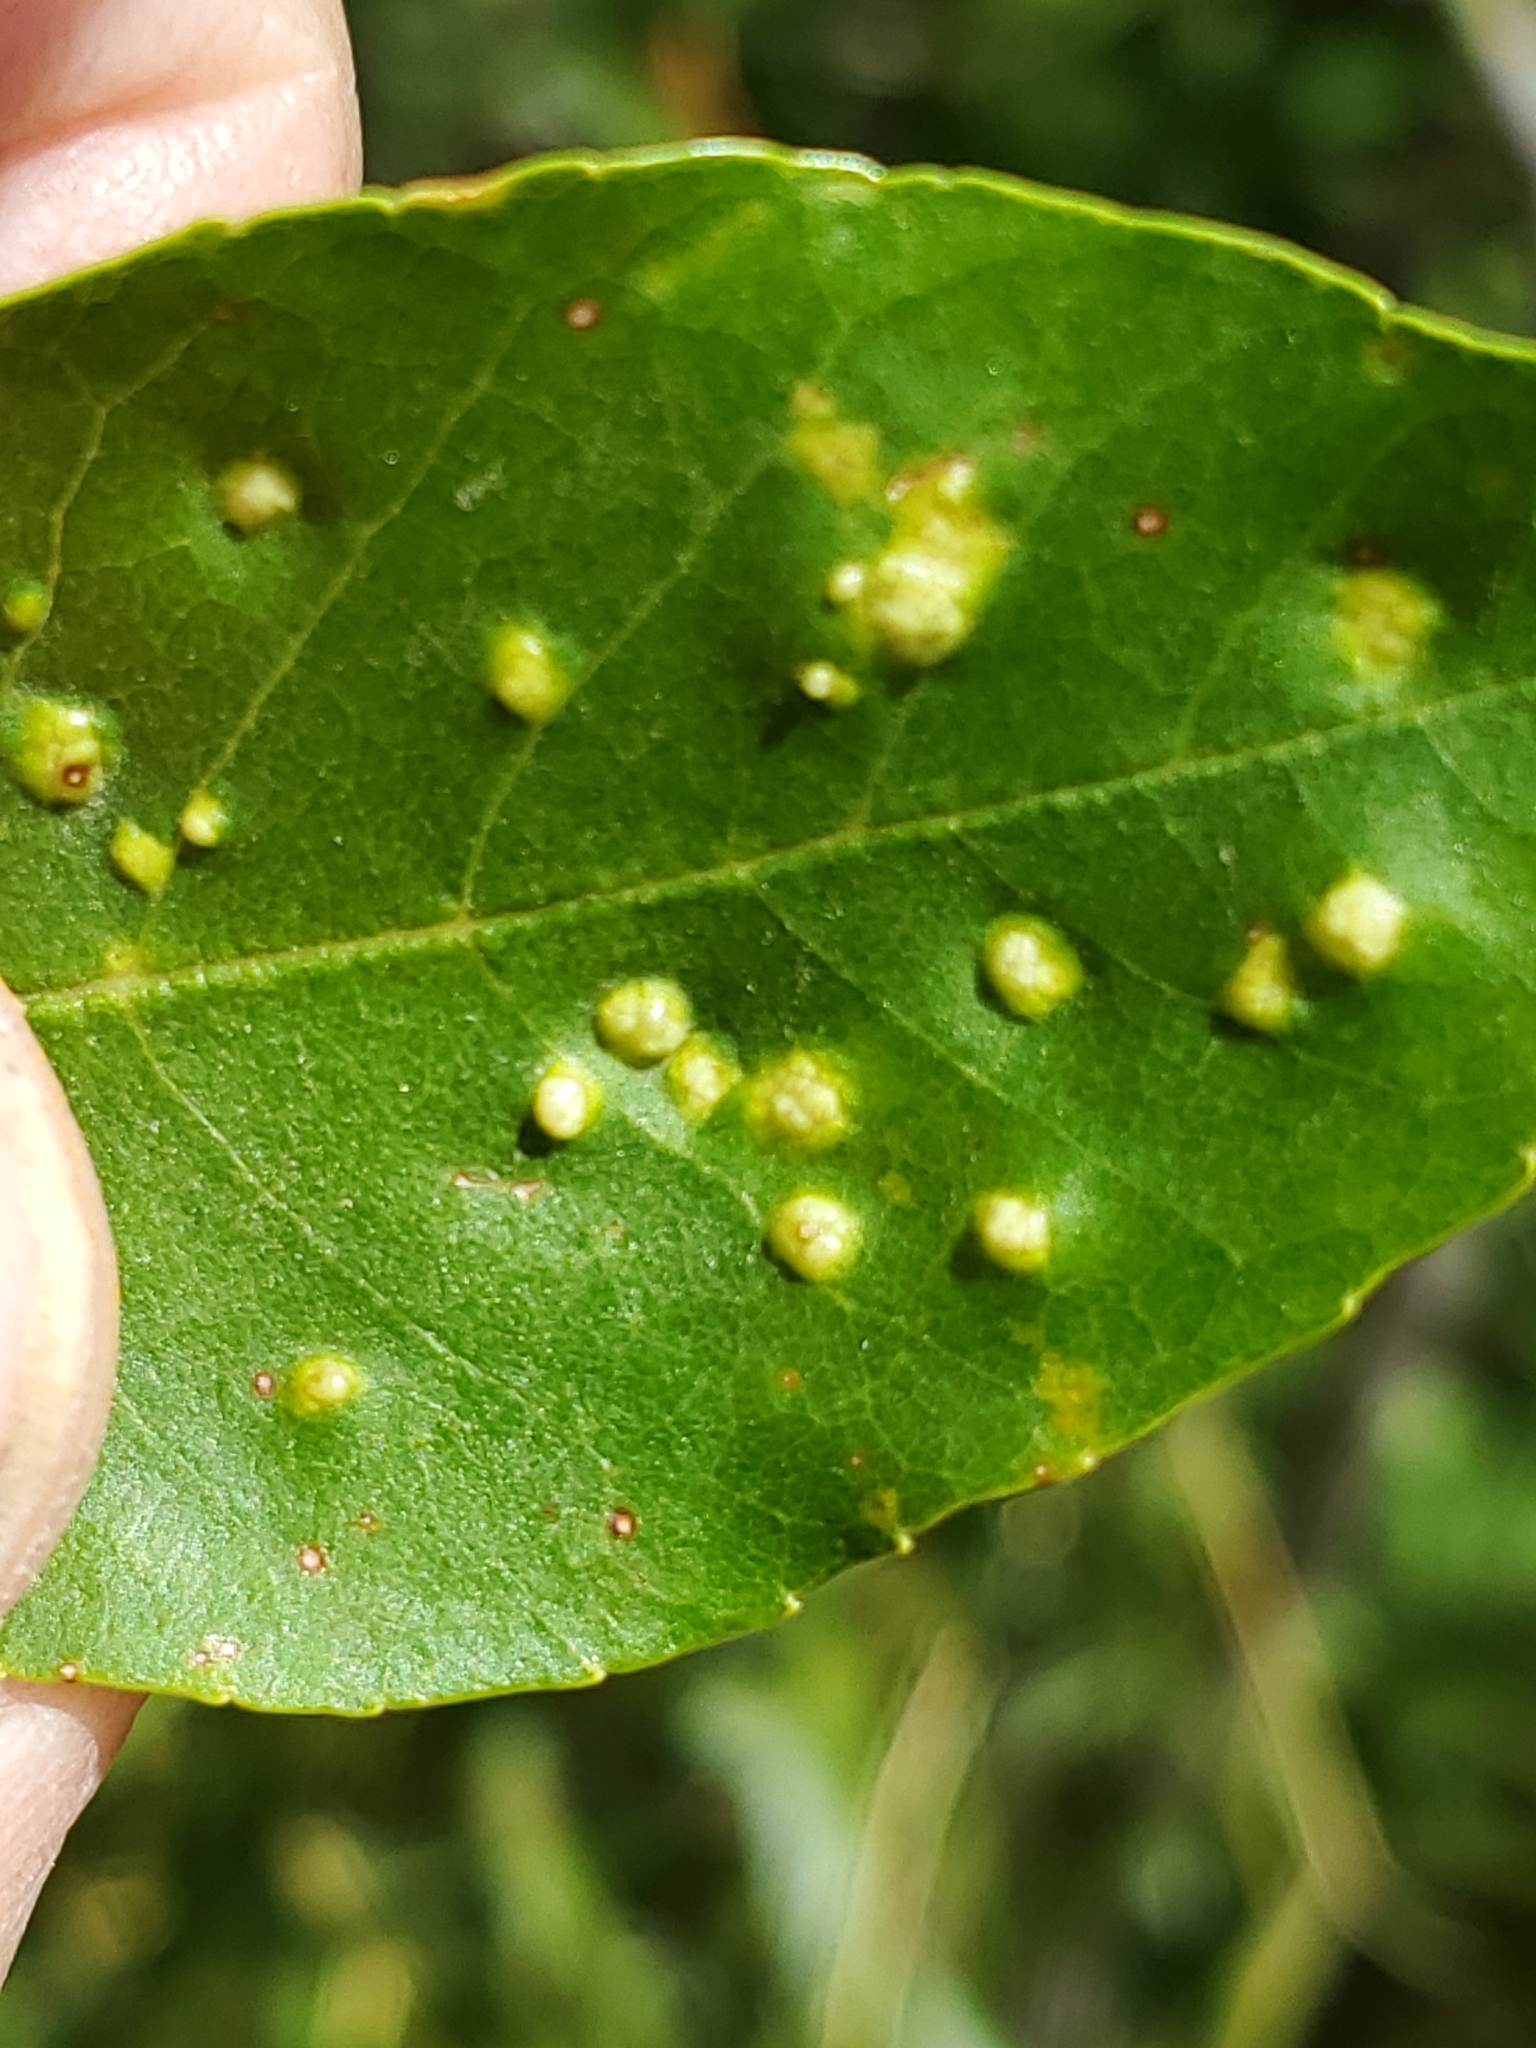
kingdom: Animalia
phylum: Arthropoda
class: Arachnida
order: Trombidiformes
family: Eriophyidae
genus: Aceria
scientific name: Aceria fraxinicola
